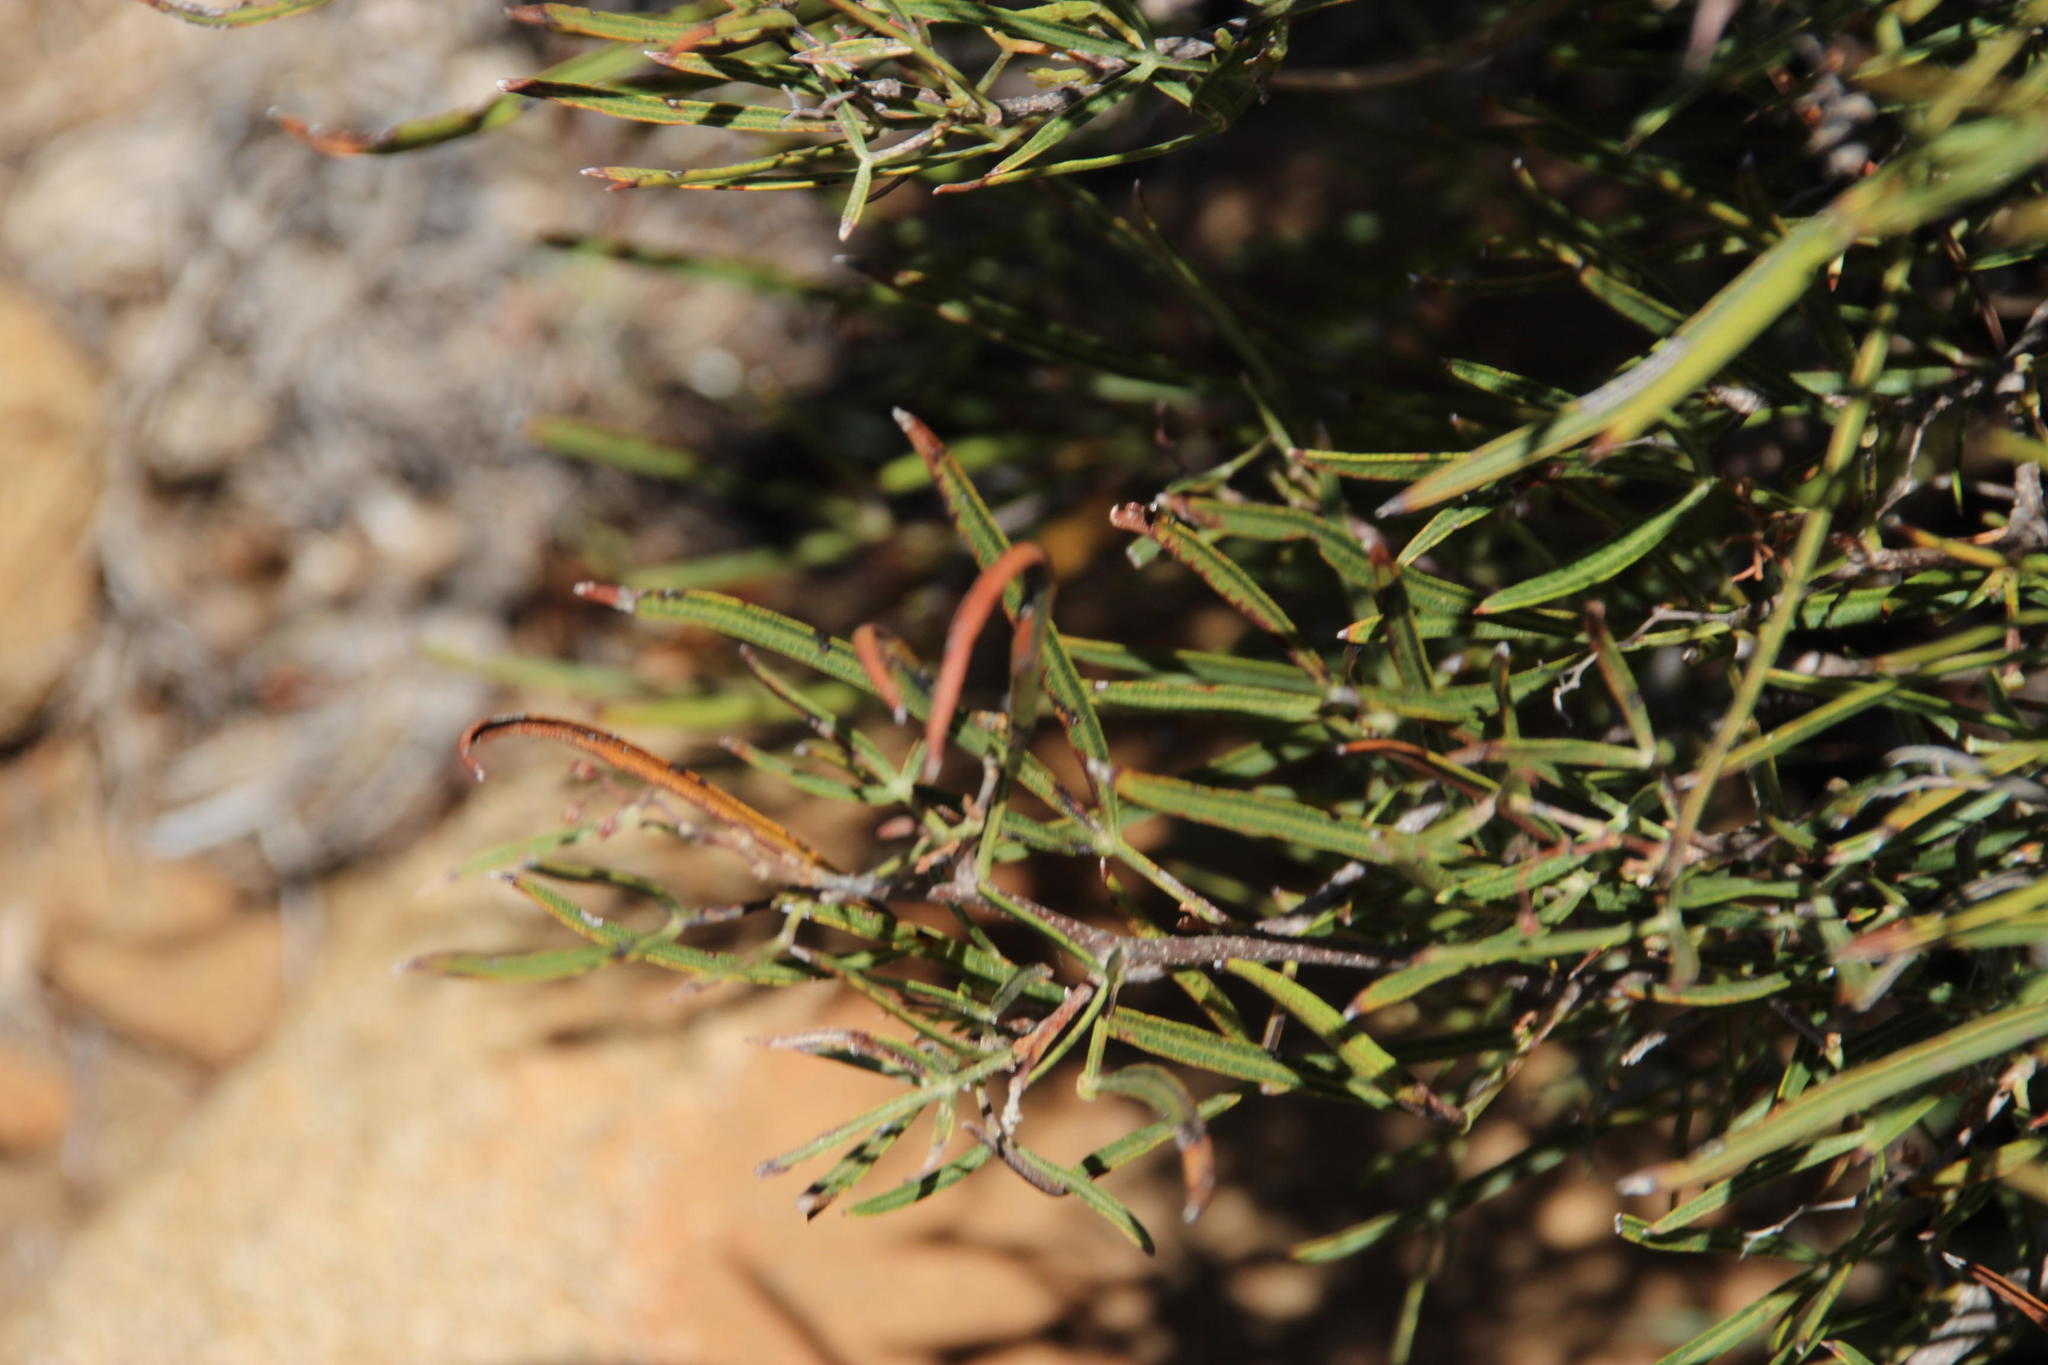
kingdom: Plantae
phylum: Tracheophyta
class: Magnoliopsida
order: Sapindales
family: Anacardiaceae
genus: Searsia
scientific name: Searsia ciliata
